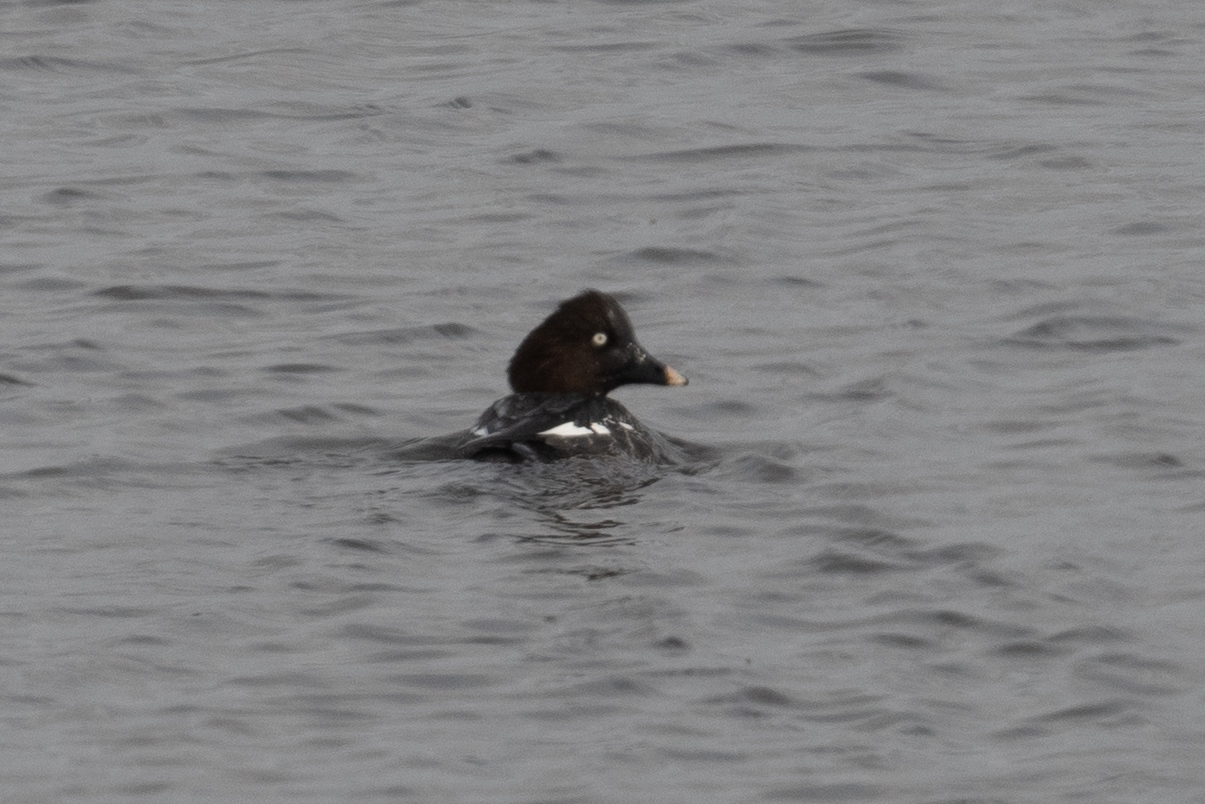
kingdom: Animalia
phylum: Chordata
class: Aves
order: Anseriformes
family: Anatidae
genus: Bucephala
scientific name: Bucephala clangula
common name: Common goldeneye
